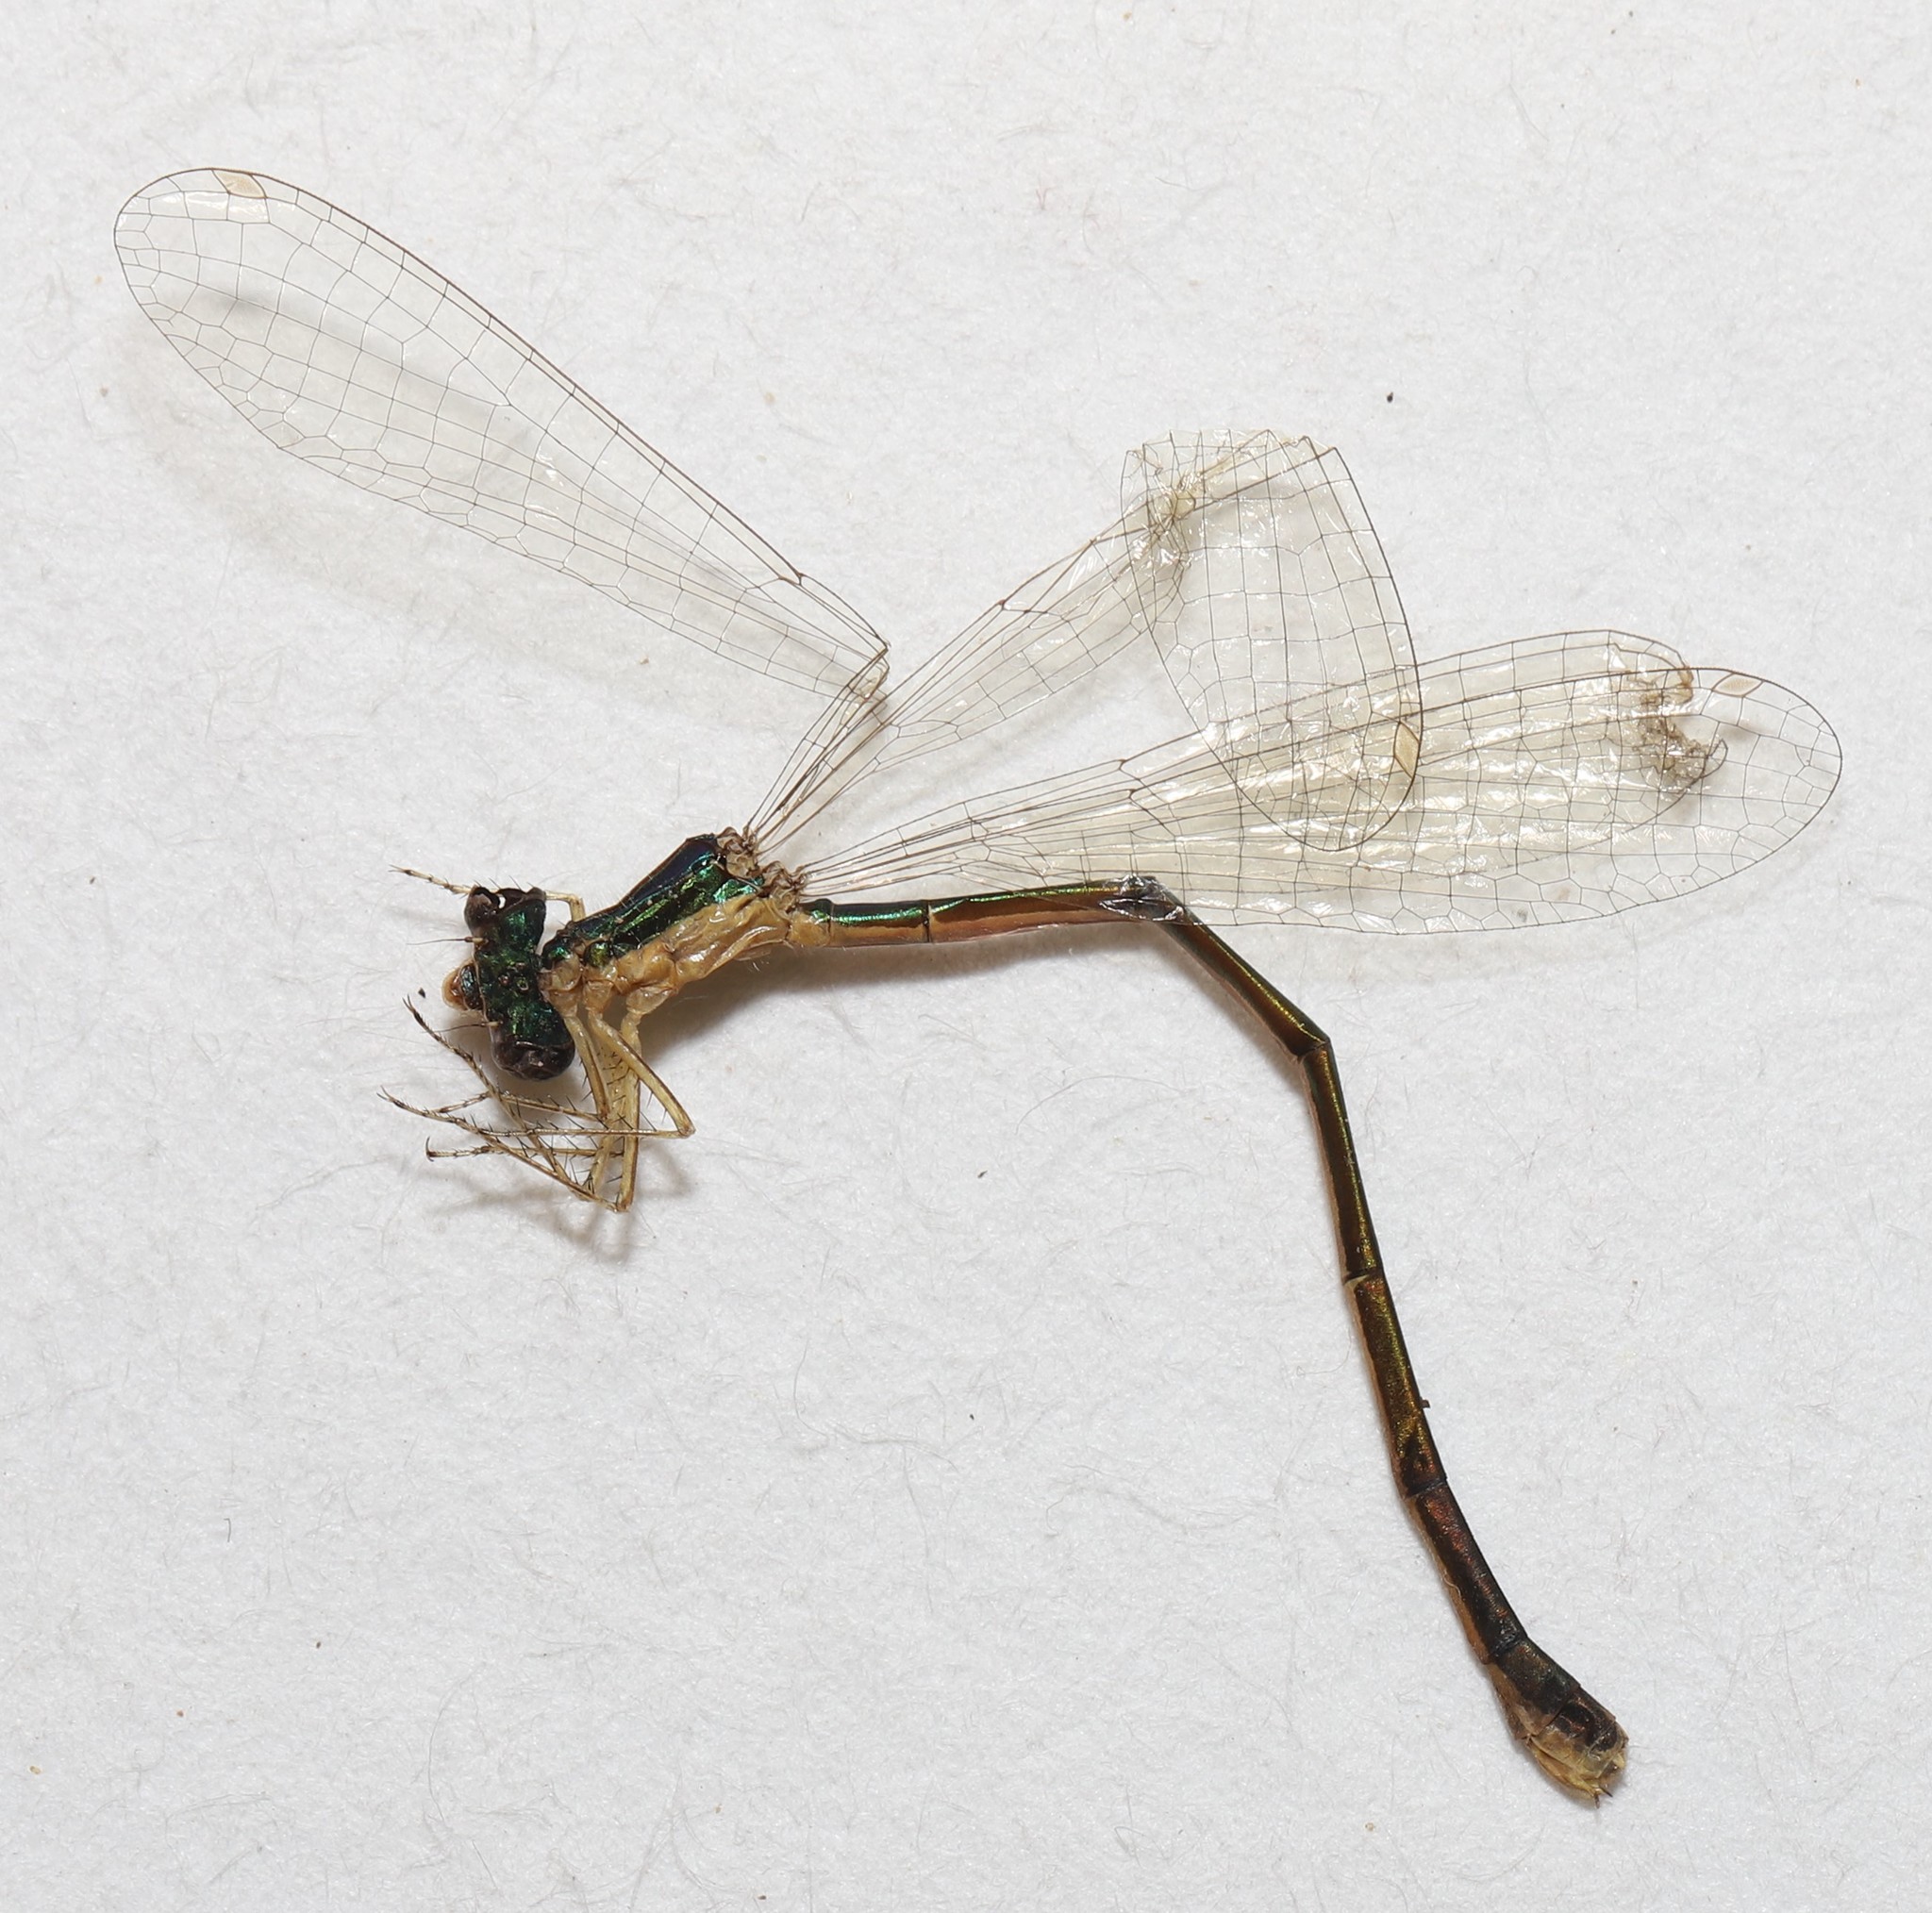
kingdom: Animalia
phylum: Arthropoda
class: Insecta
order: Odonata
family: Coenagrionidae
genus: Nehalennia
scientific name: Nehalennia irene
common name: Sedge sprite
